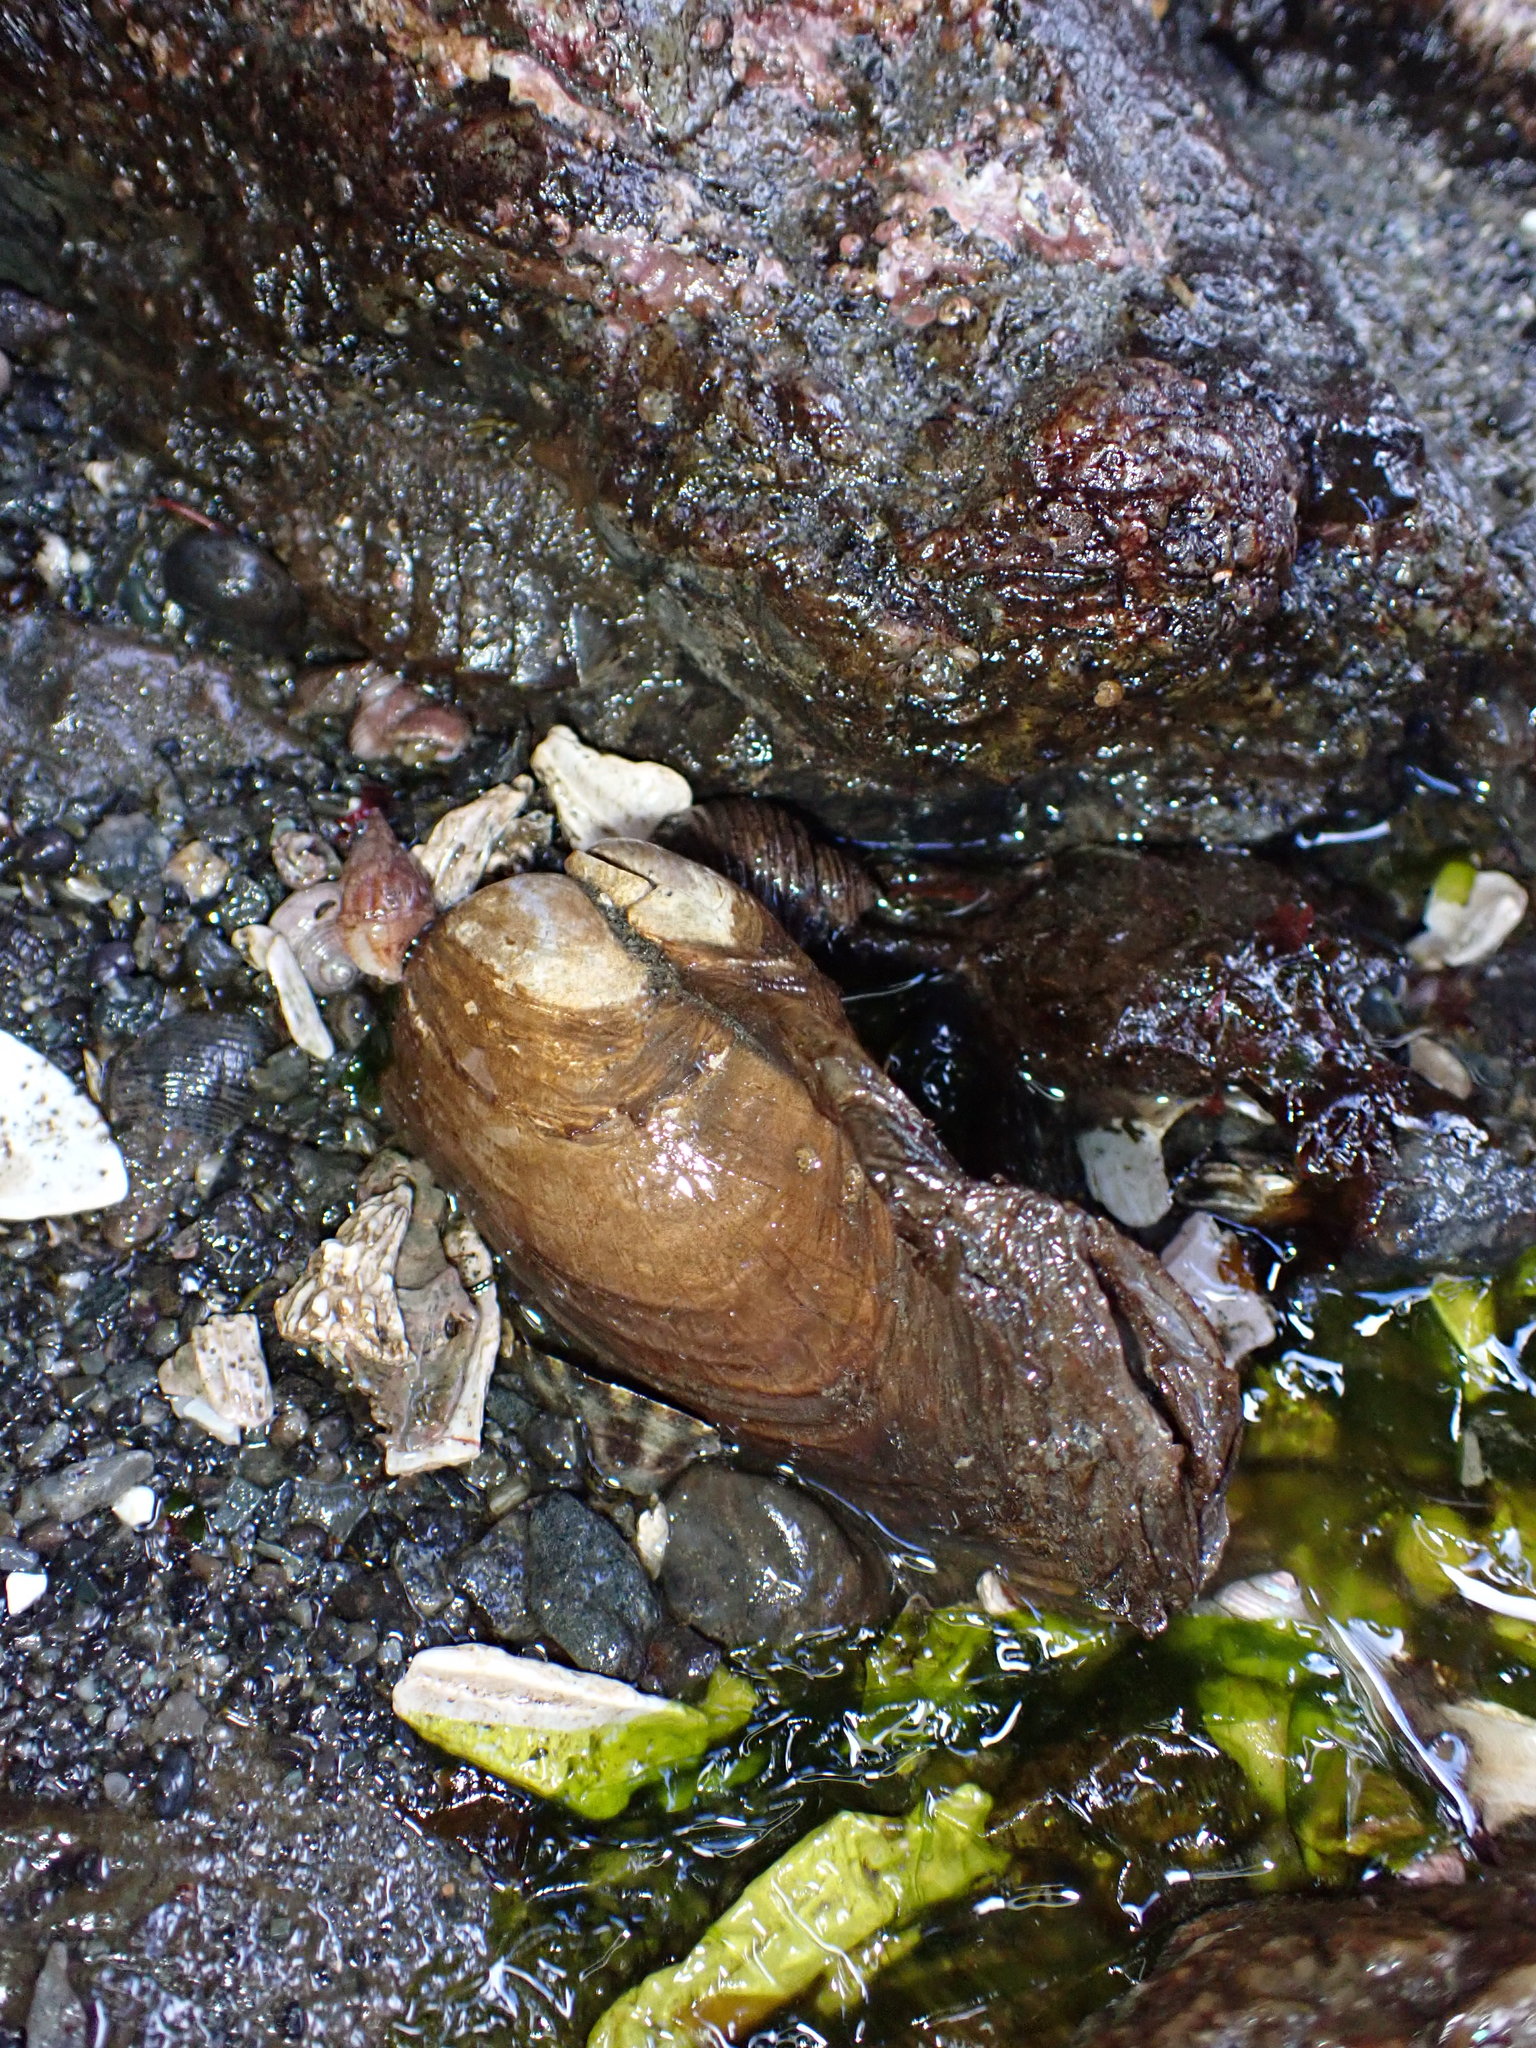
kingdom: Animalia
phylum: Mollusca
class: Bivalvia
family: Lyonsiidae
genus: Entodesma
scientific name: Entodesma navicula
